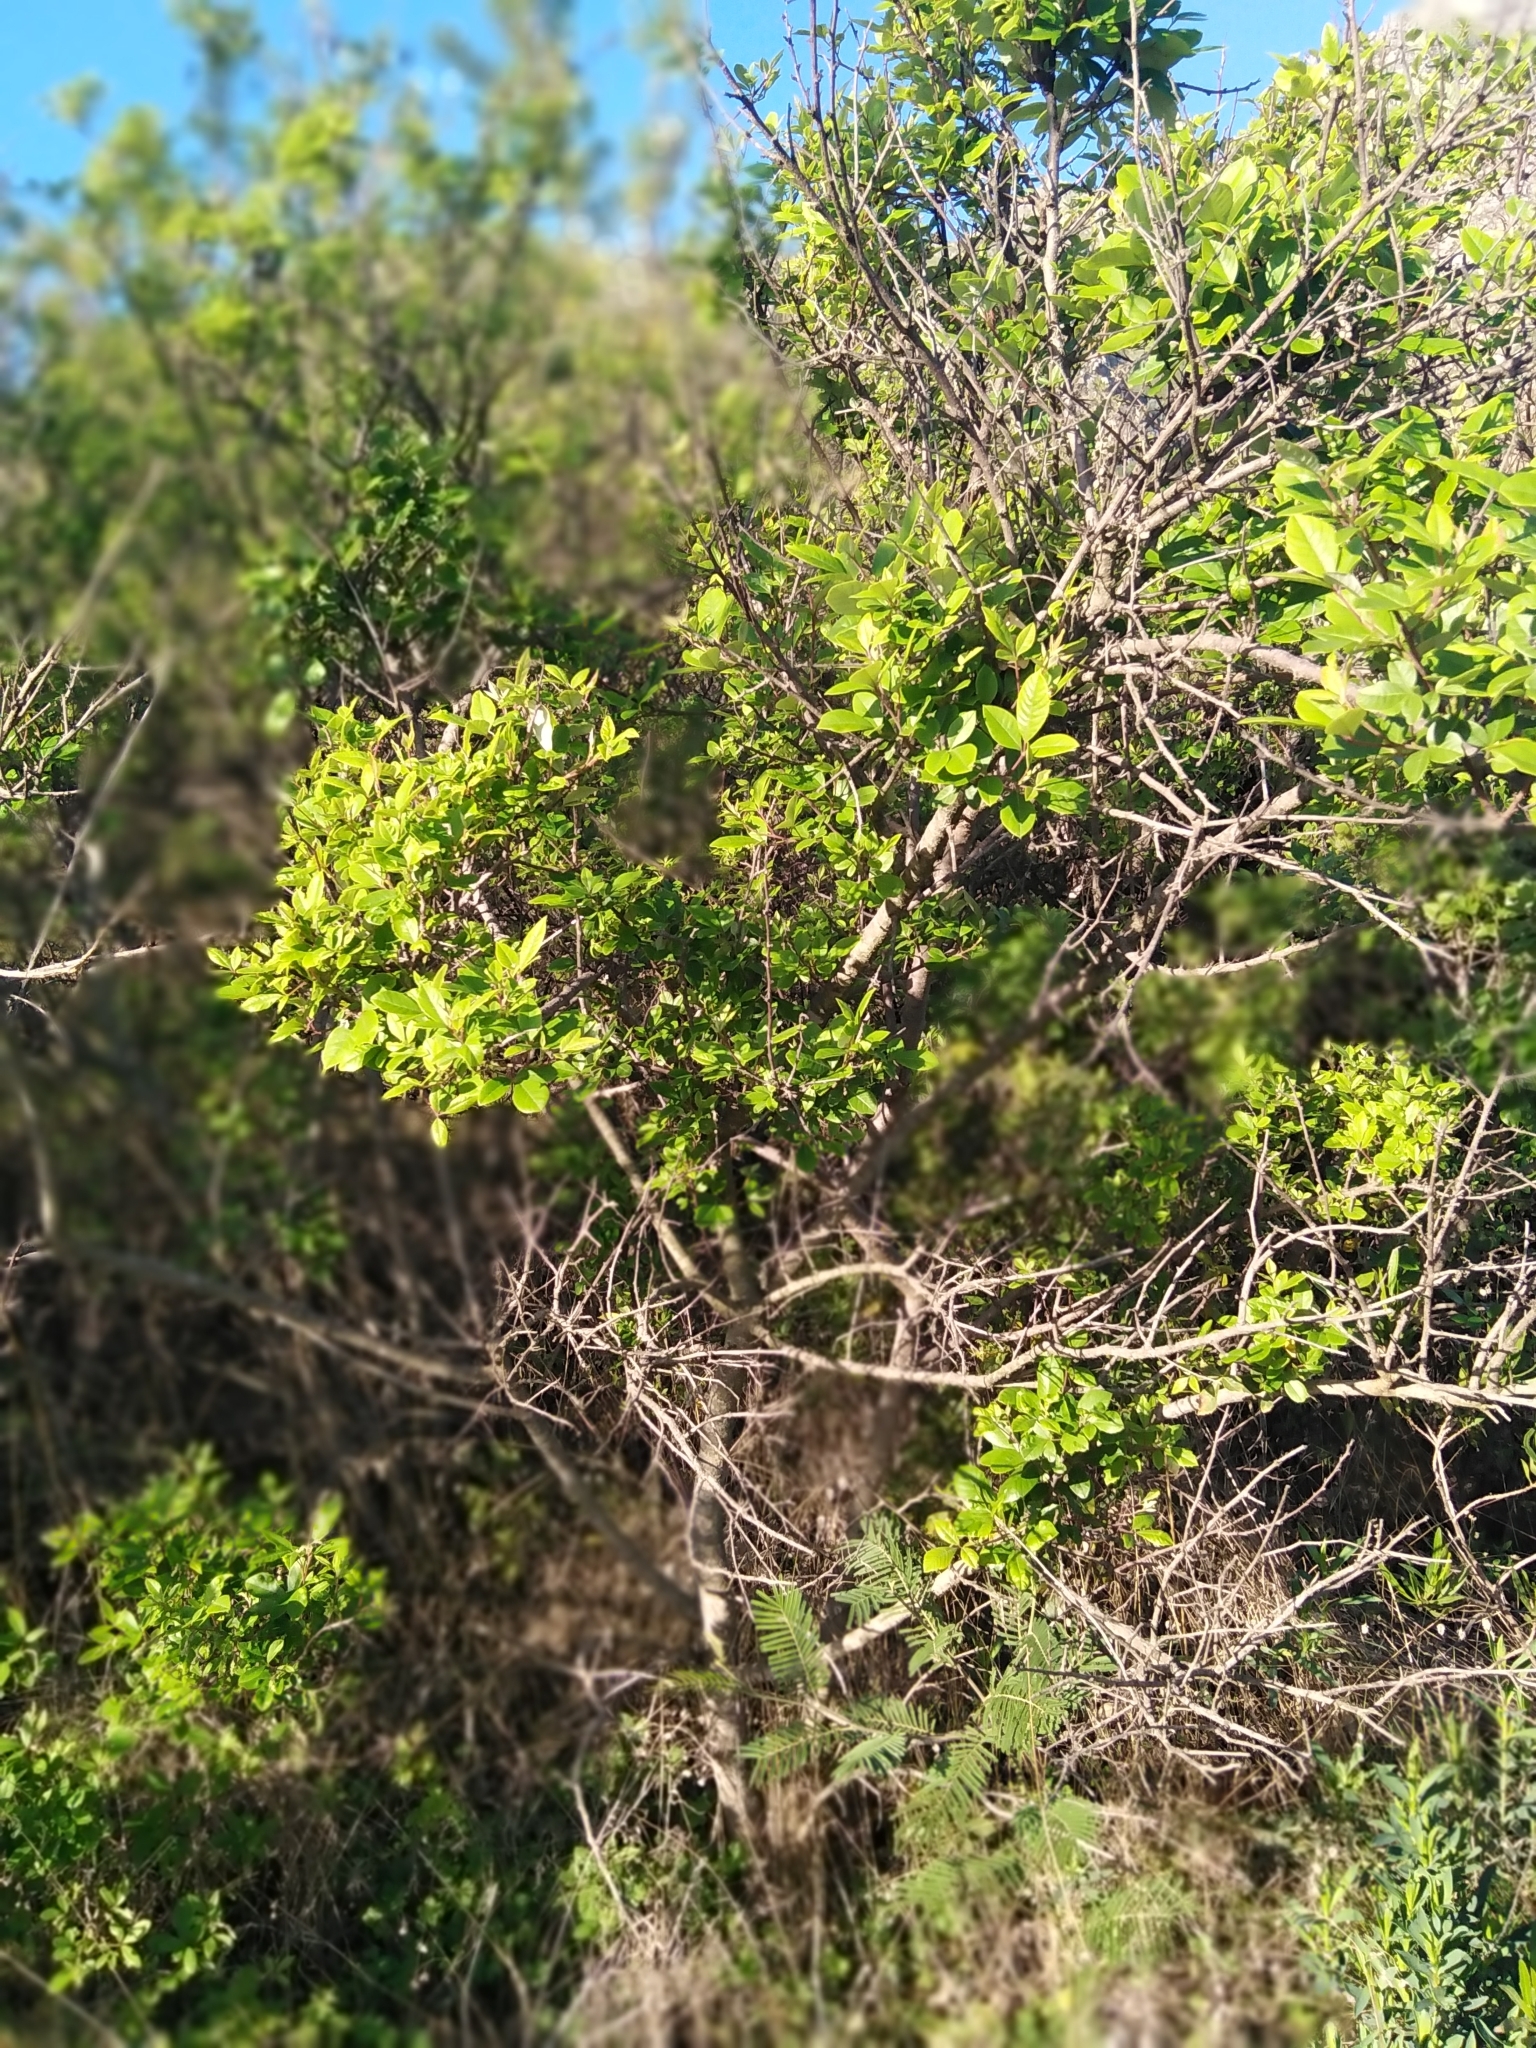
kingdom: Plantae
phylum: Tracheophyta
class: Magnoliopsida
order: Sapindales
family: Anacardiaceae
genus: Searsia
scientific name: Searsia tomentosa
